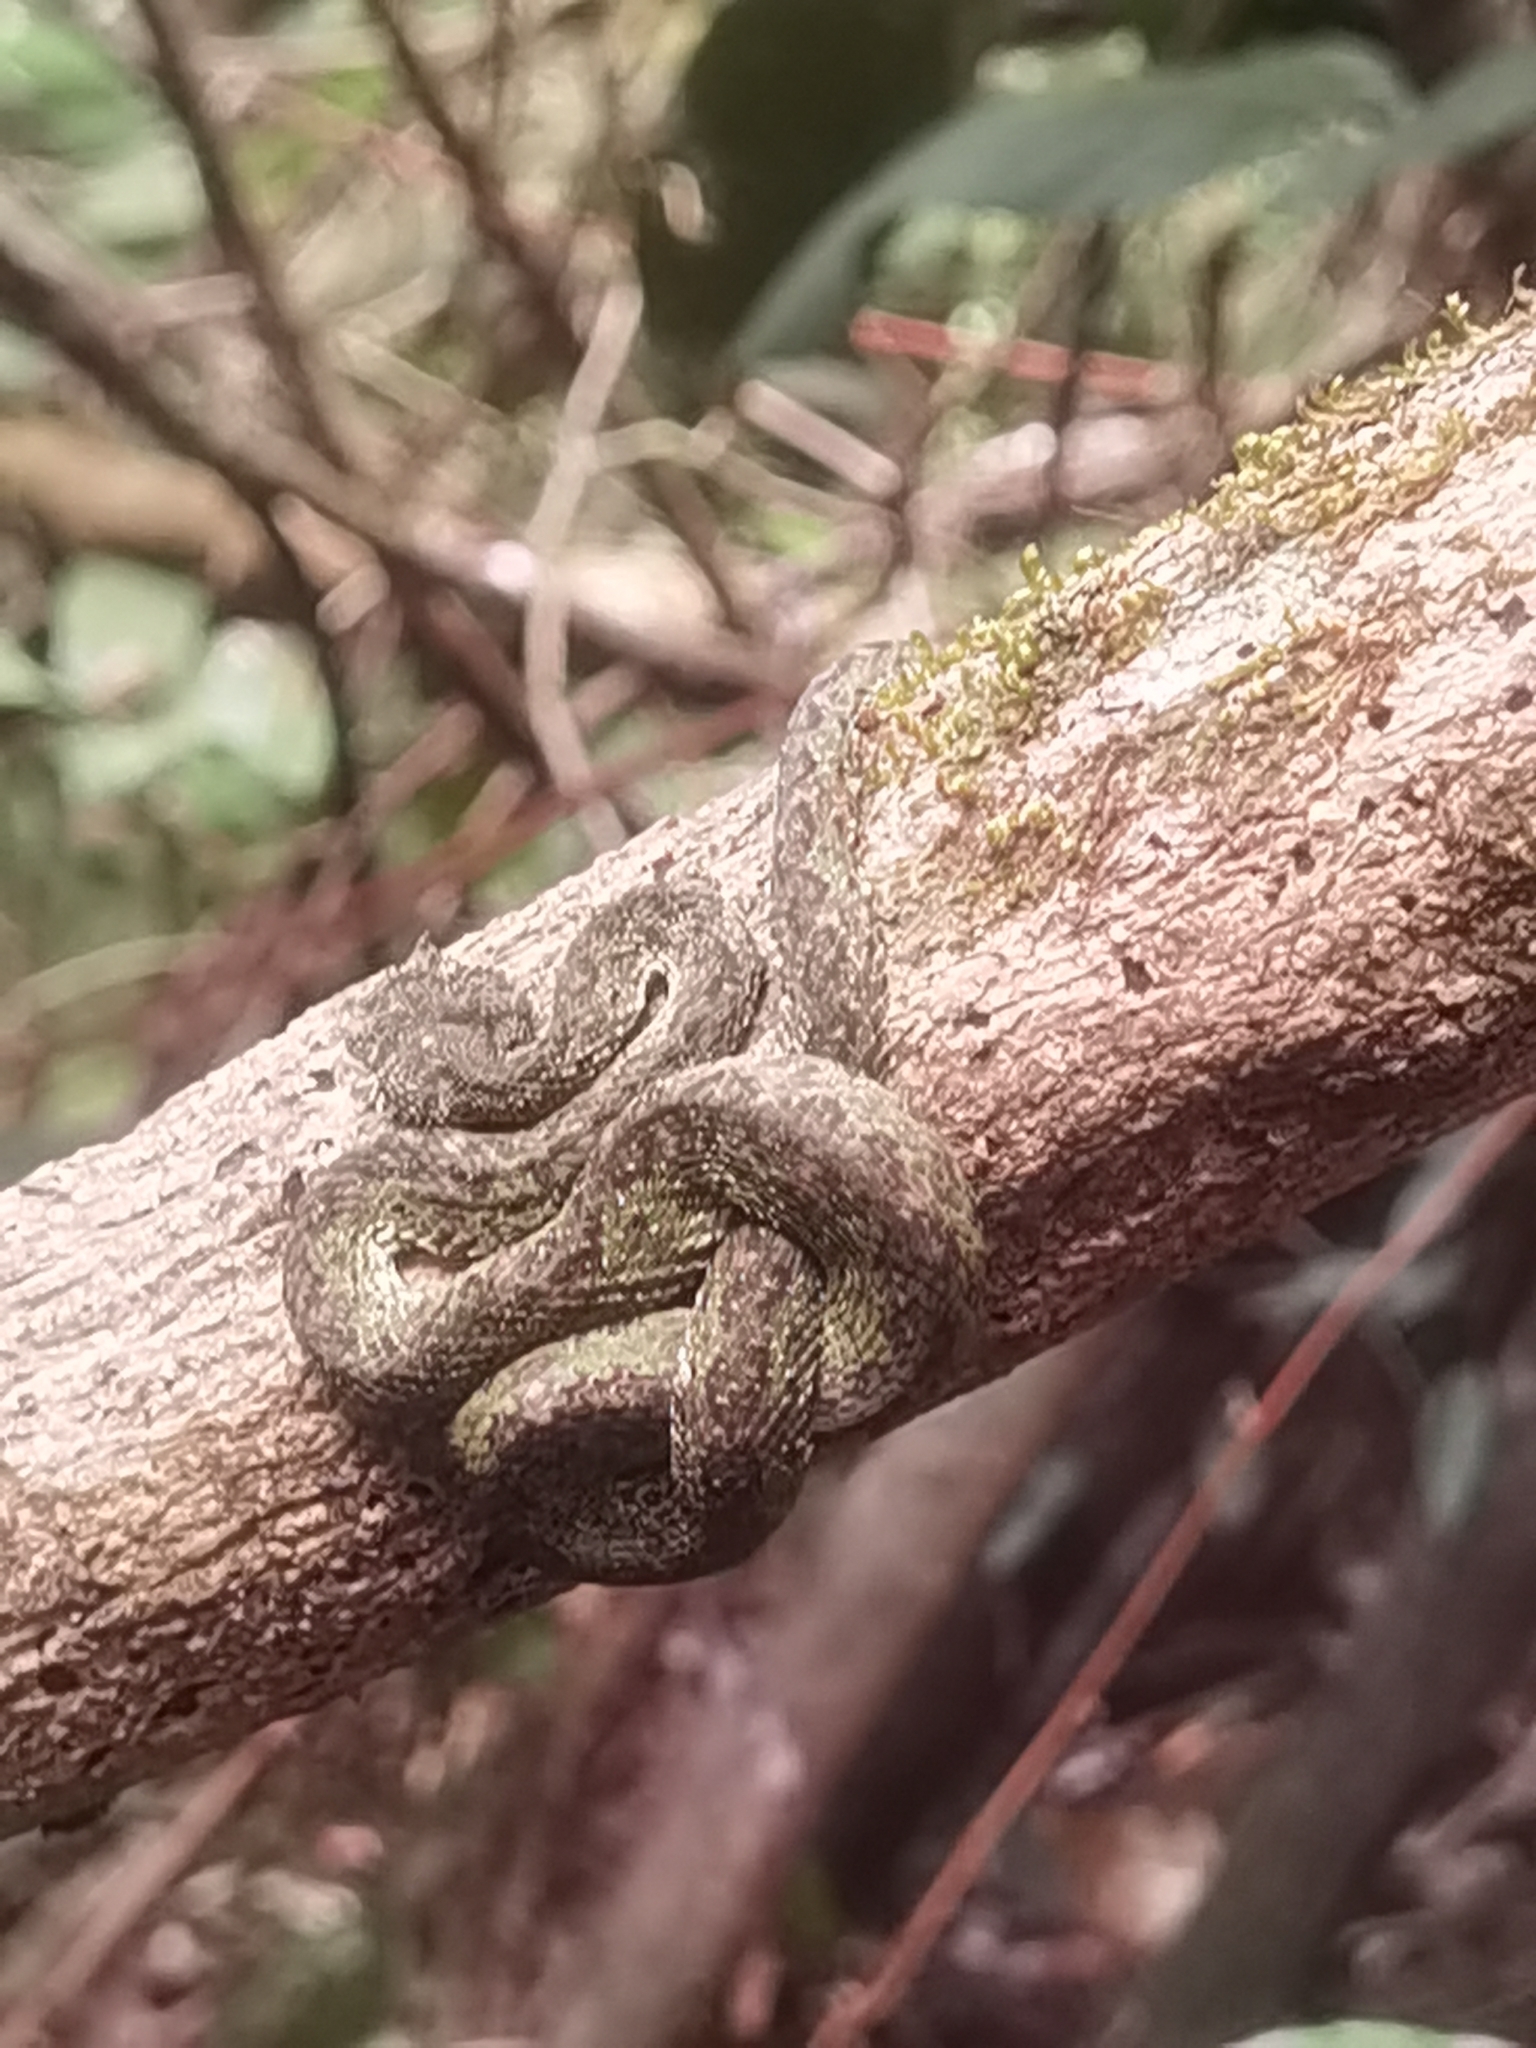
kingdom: Animalia
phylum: Chordata
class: Squamata
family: Viperidae
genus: Bothriechis
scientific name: Bothriechis schlegelii
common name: Eyelash viper
